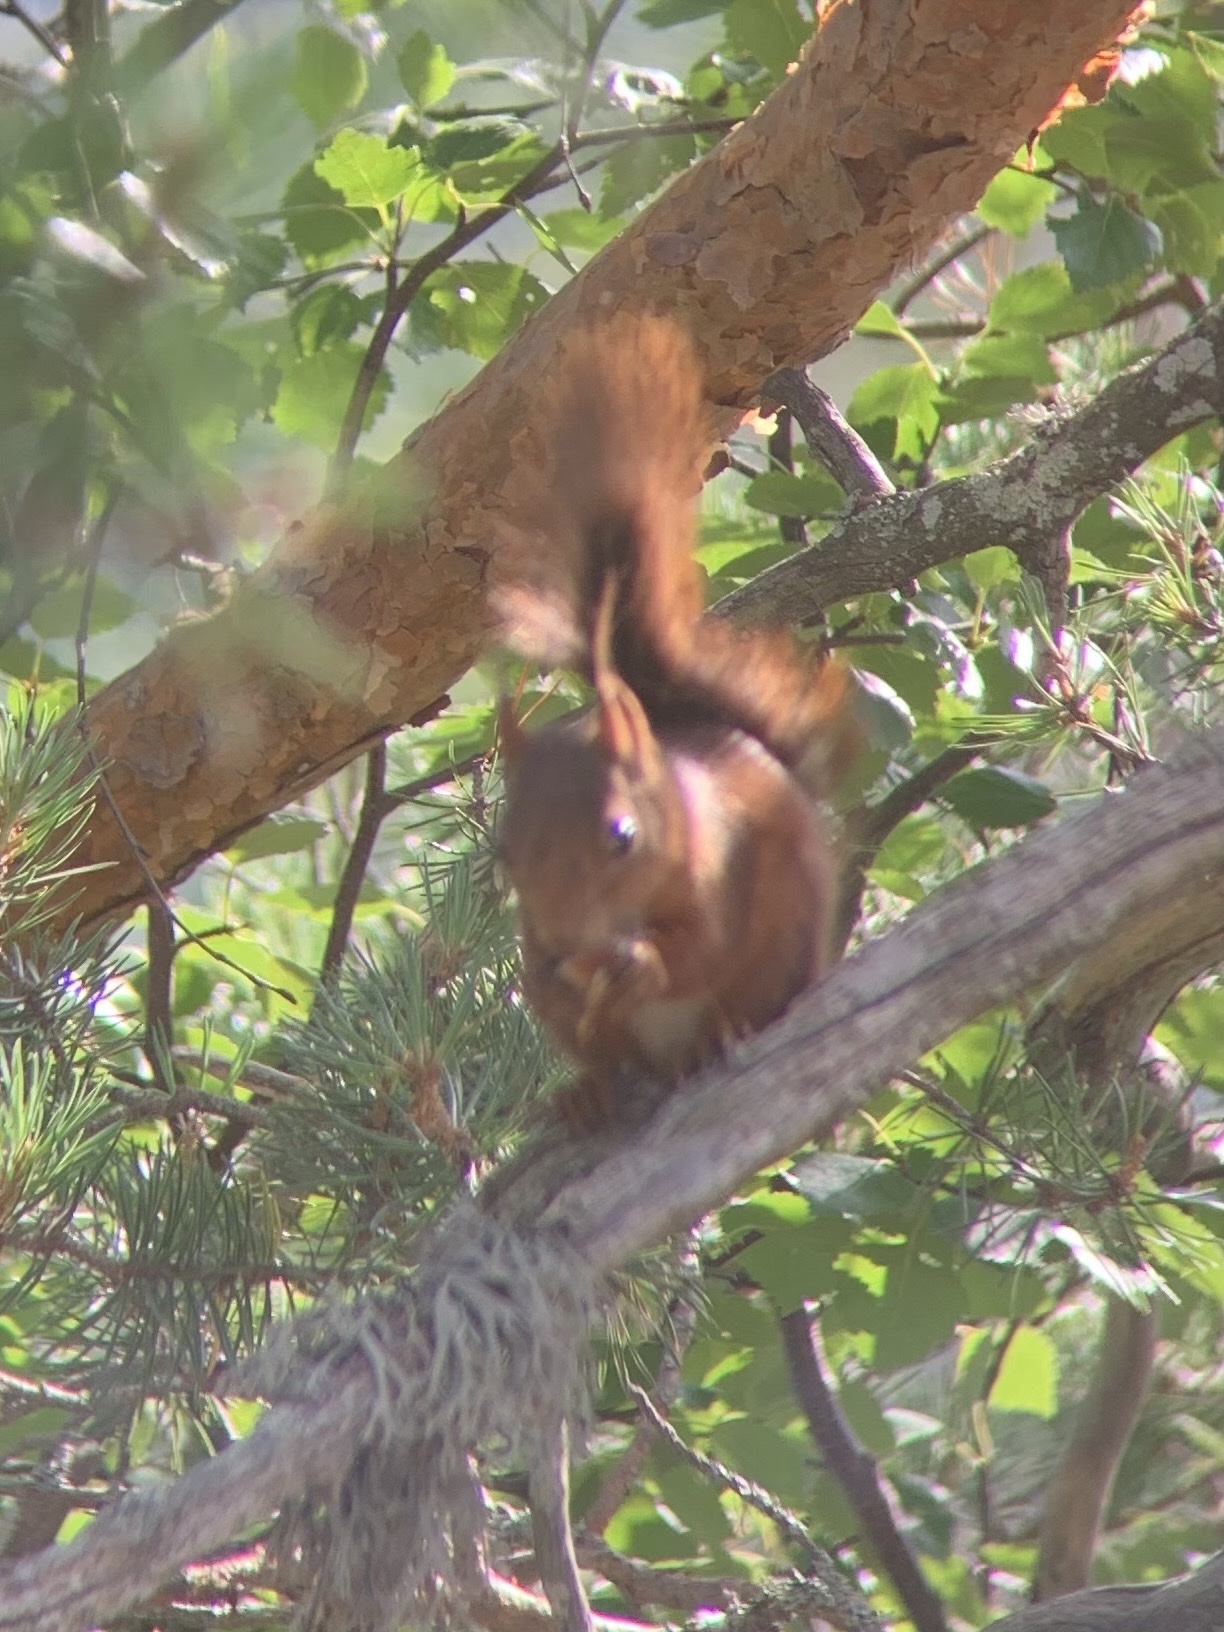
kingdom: Animalia
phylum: Chordata
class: Mammalia
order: Rodentia
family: Sciuridae
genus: Sciurus
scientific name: Sciurus vulgaris
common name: Eurasian red squirrel
